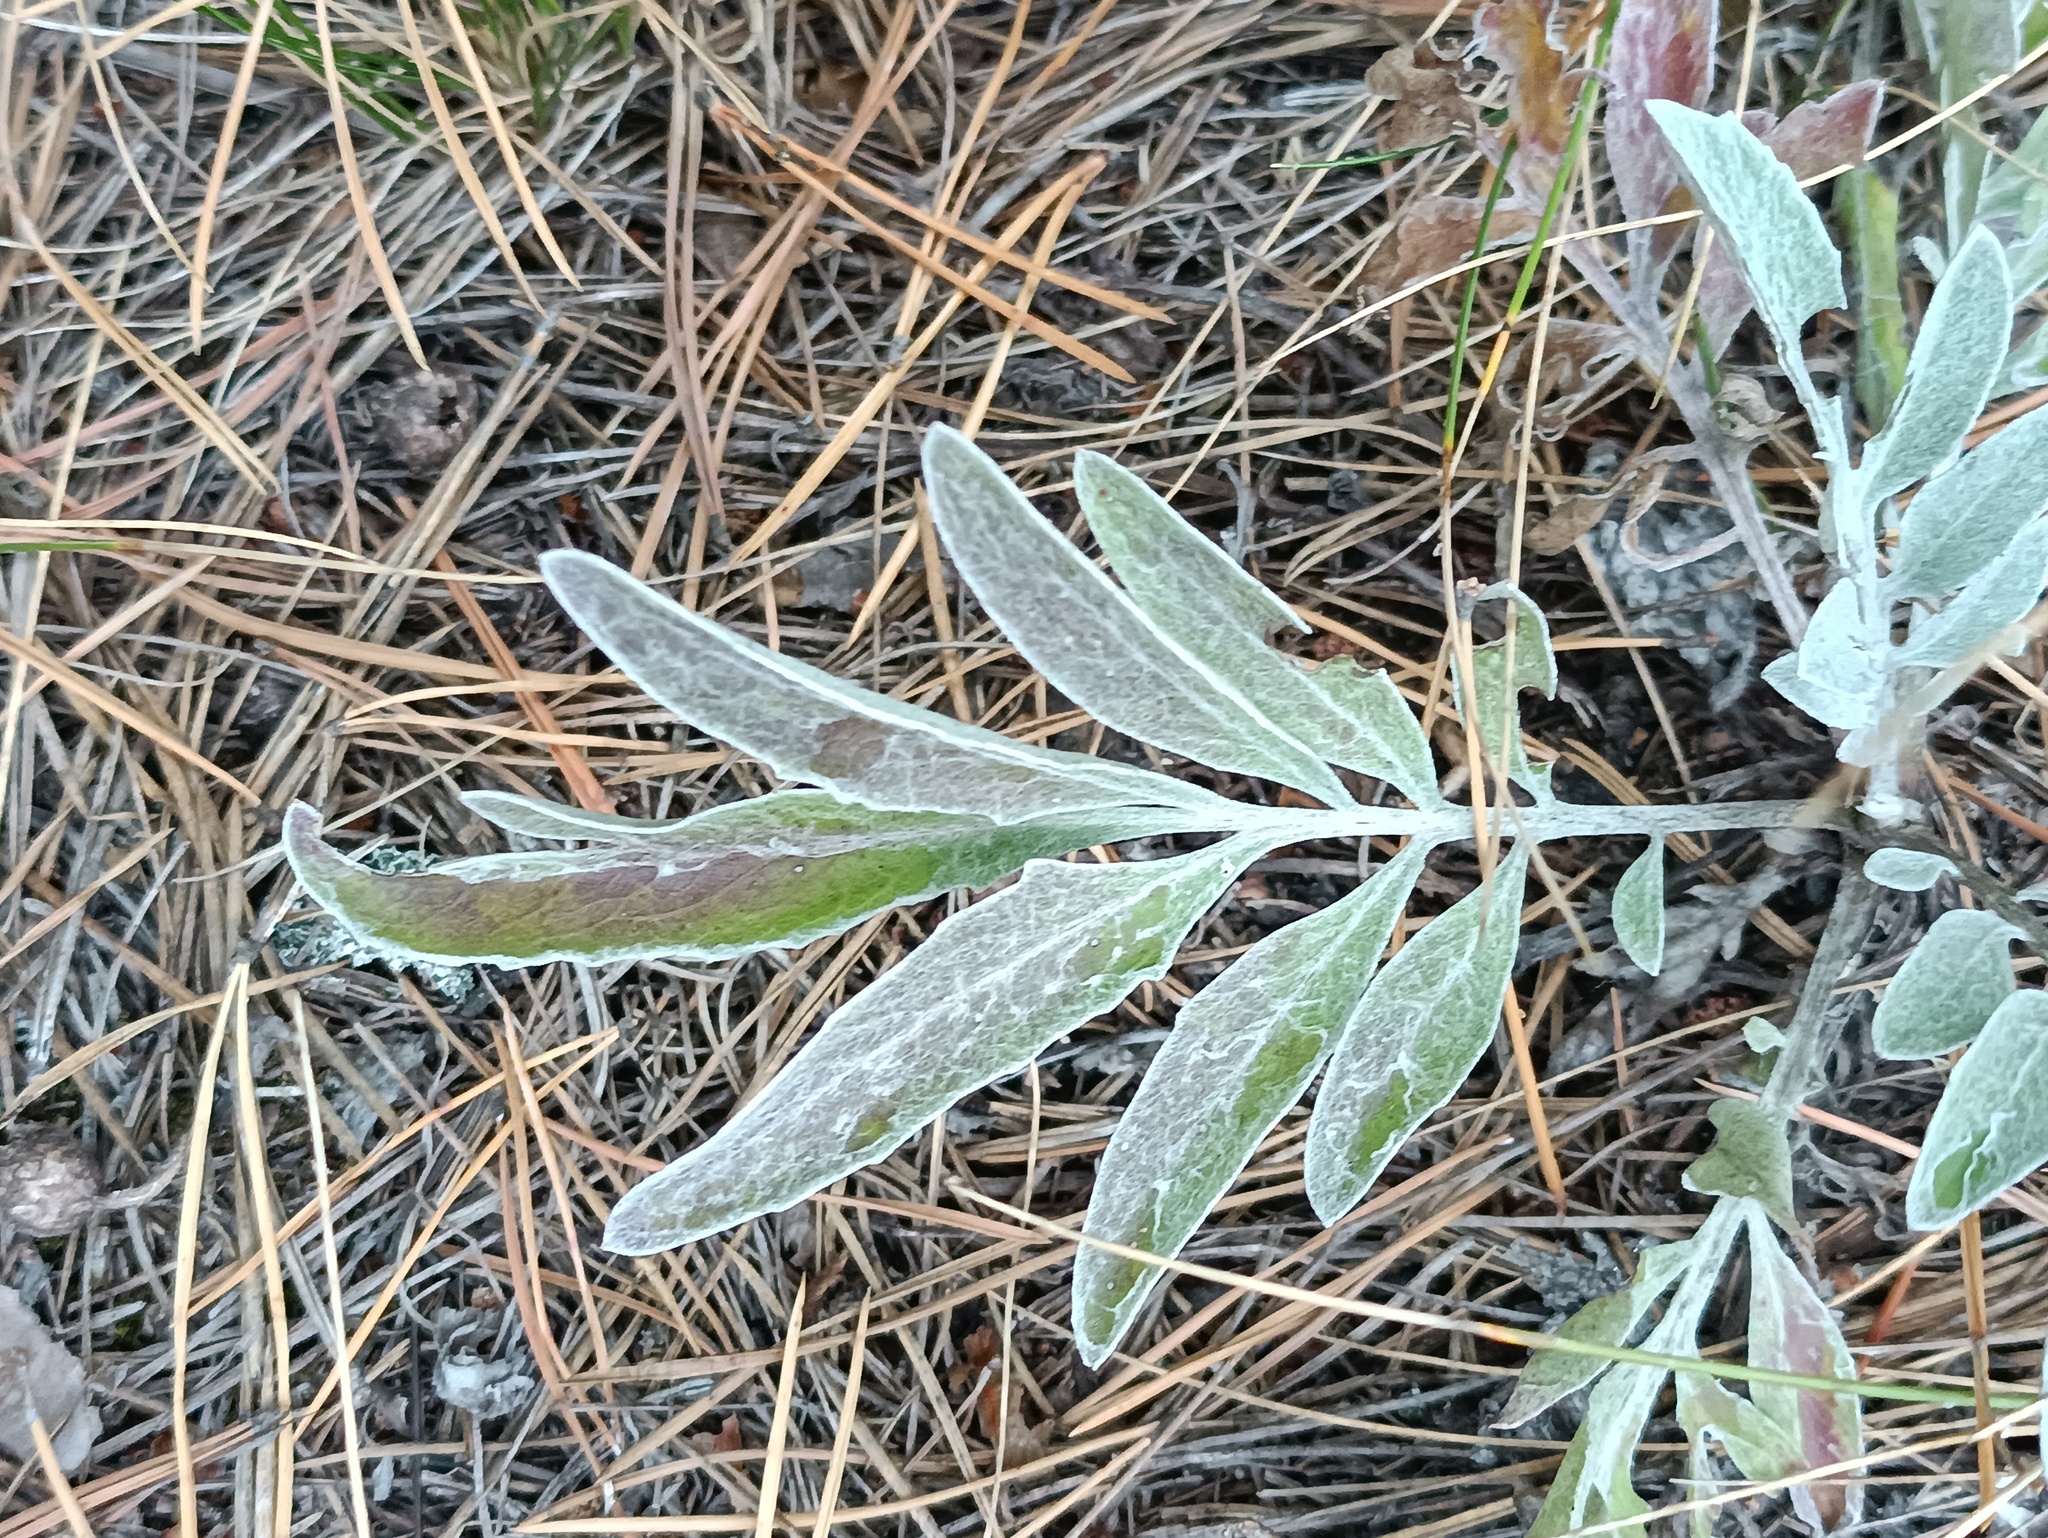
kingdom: Plantae
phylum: Tracheophyta
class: Magnoliopsida
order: Asterales
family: Asteraceae
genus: Psephellus
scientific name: Psephellus sumensis
